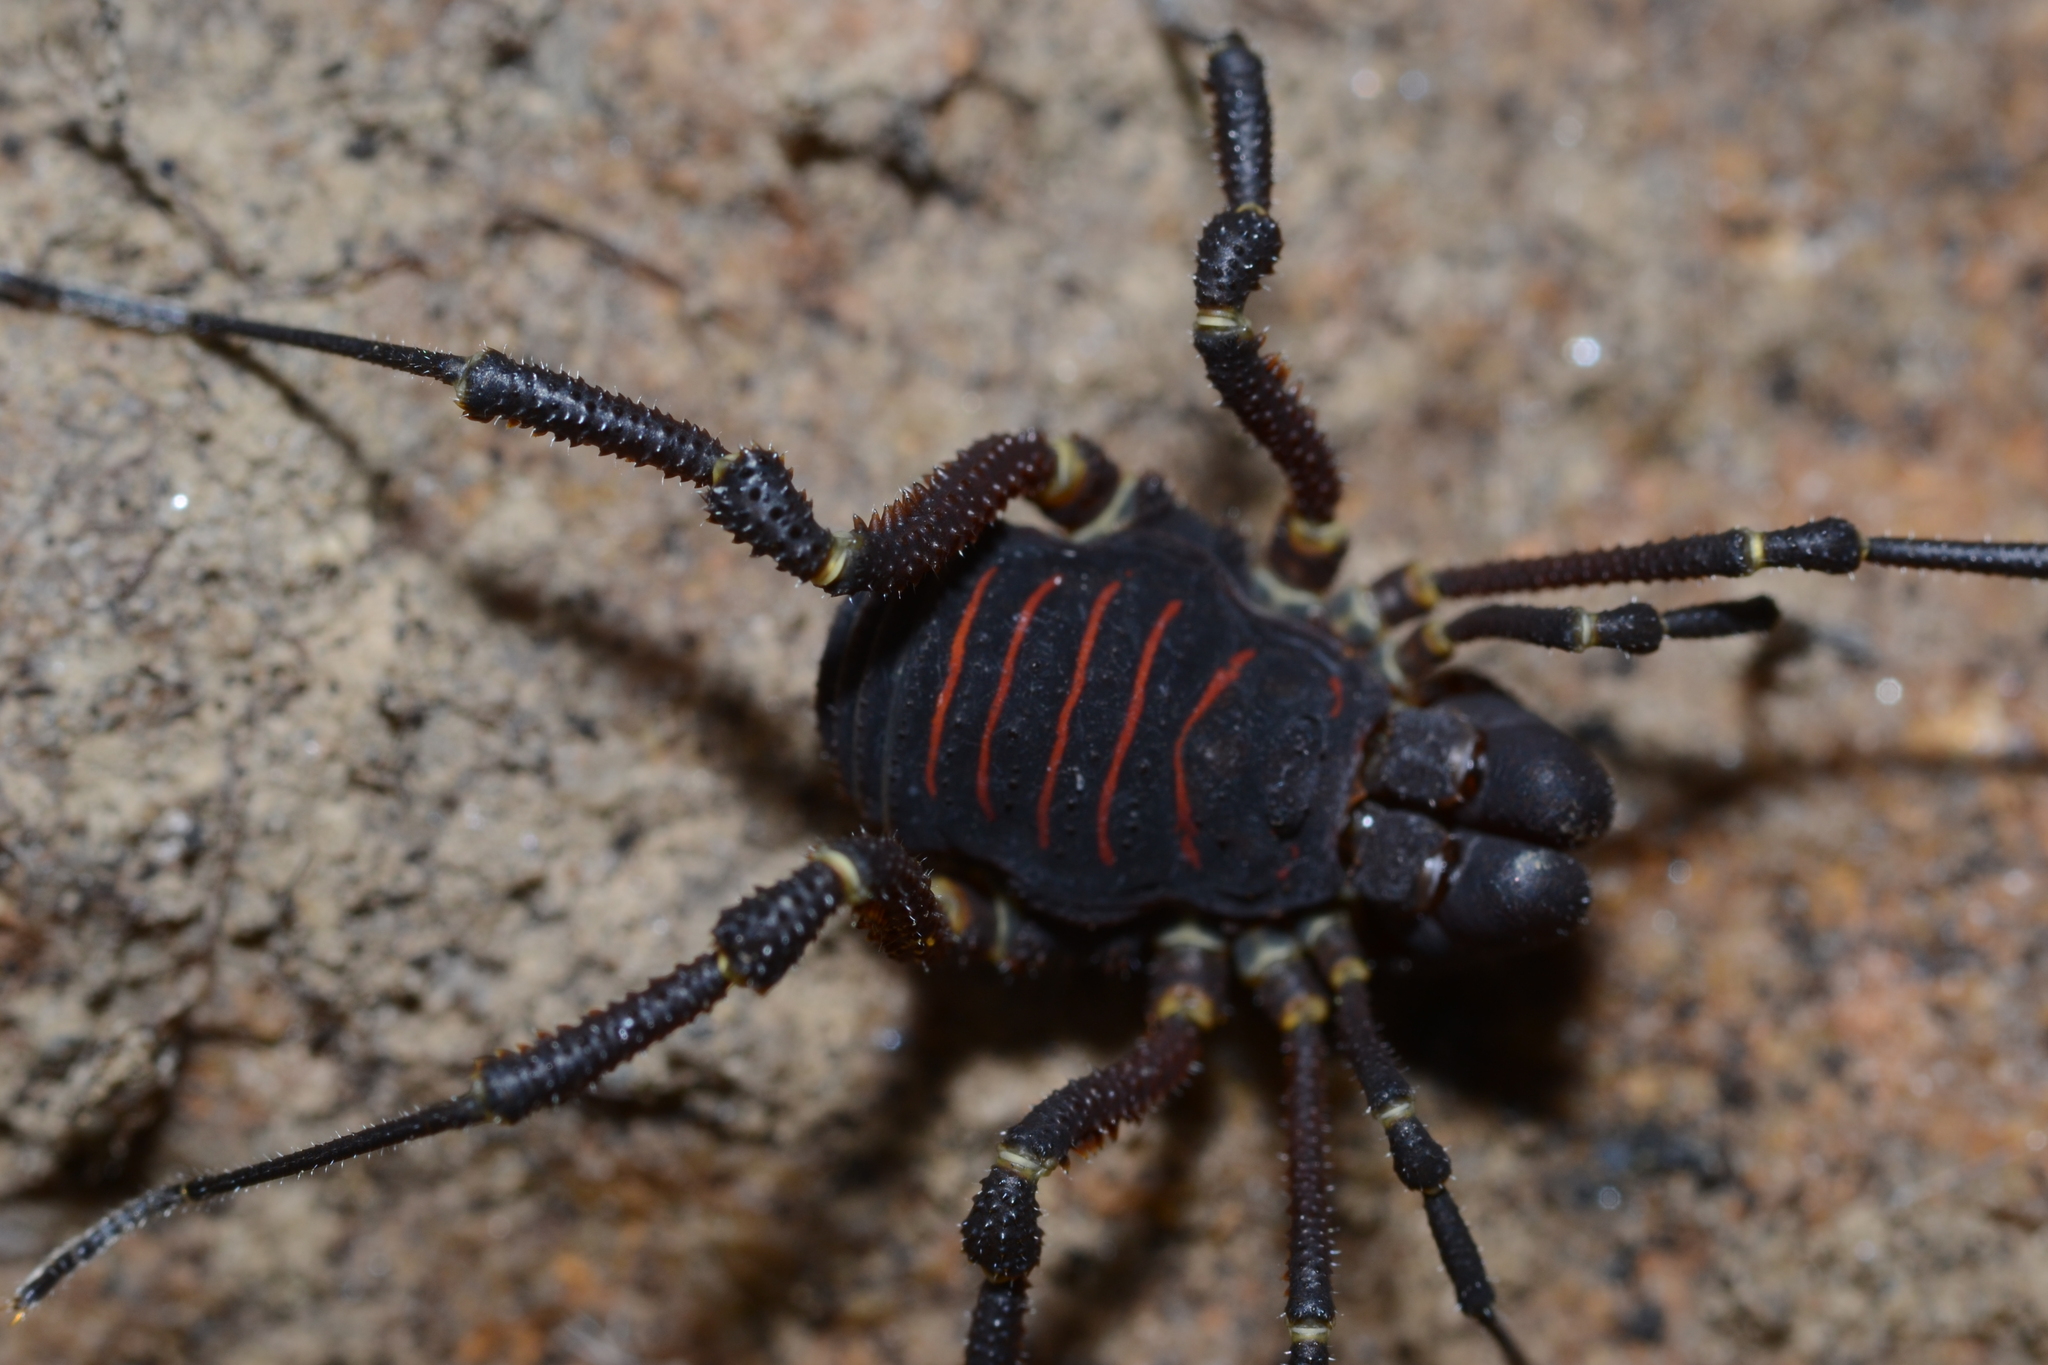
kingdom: Animalia
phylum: Arthropoda
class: Arachnida
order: Opiliones
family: Cosmetidae
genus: Rhaucus
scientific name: Rhaucus vulneratus
